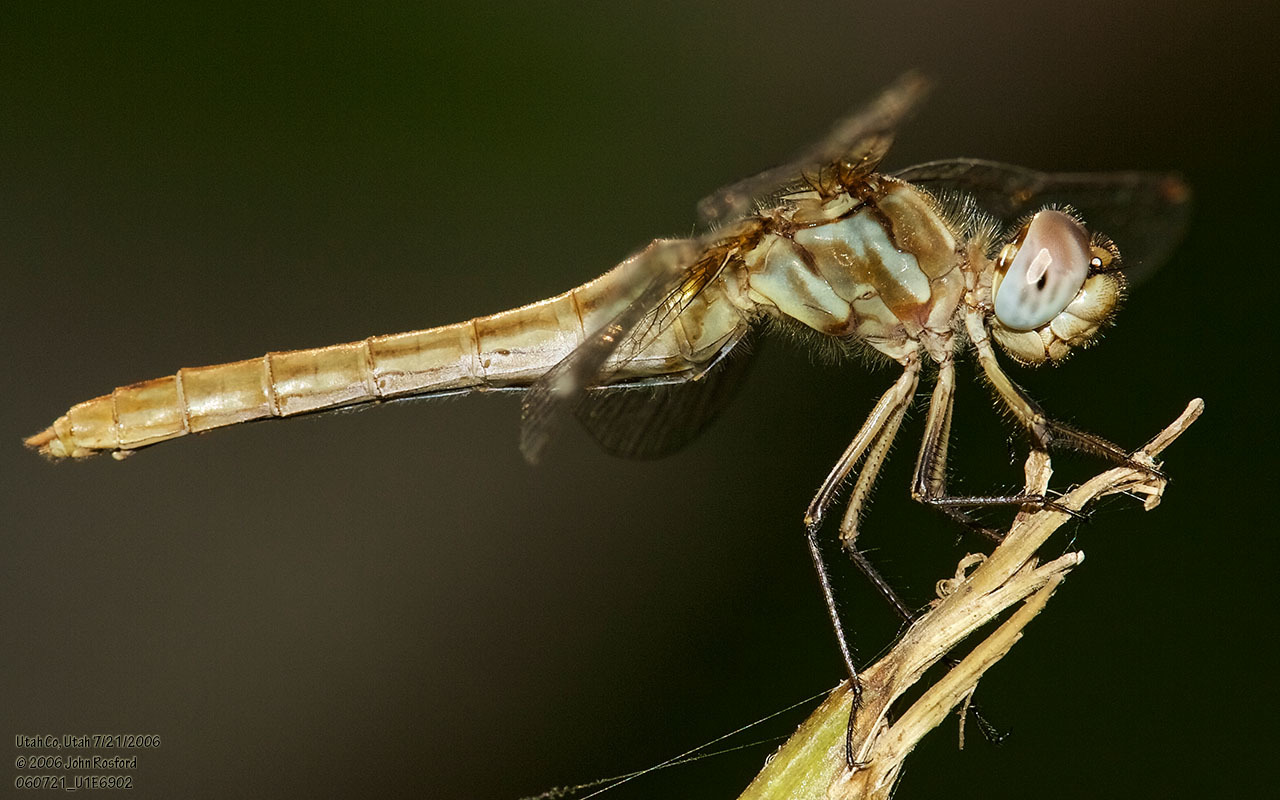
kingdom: Animalia
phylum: Arthropoda
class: Insecta
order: Odonata
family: Libellulidae
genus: Sympetrum
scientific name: Sympetrum pallipes
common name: Striped meadowhawk
